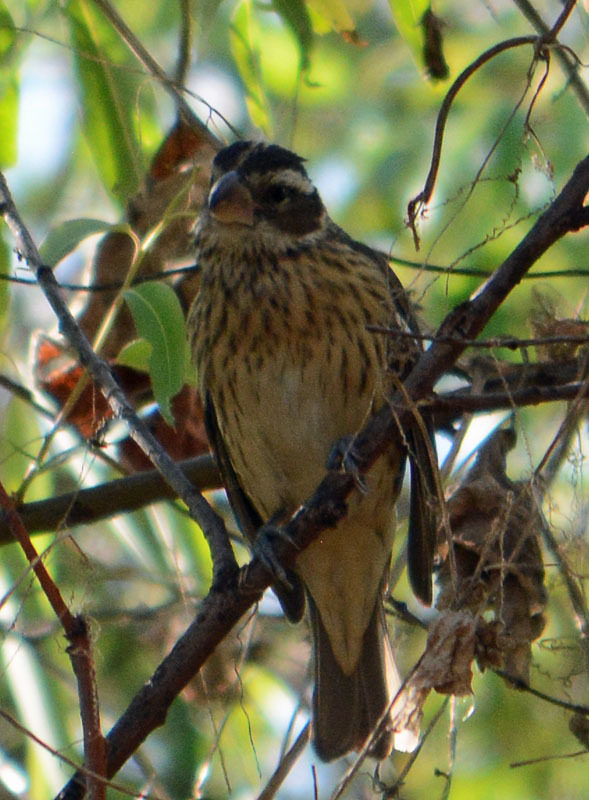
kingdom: Animalia
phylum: Chordata
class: Aves
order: Passeriformes
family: Cardinalidae
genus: Pheucticus
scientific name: Pheucticus ludovicianus
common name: Rose-breasted grosbeak
